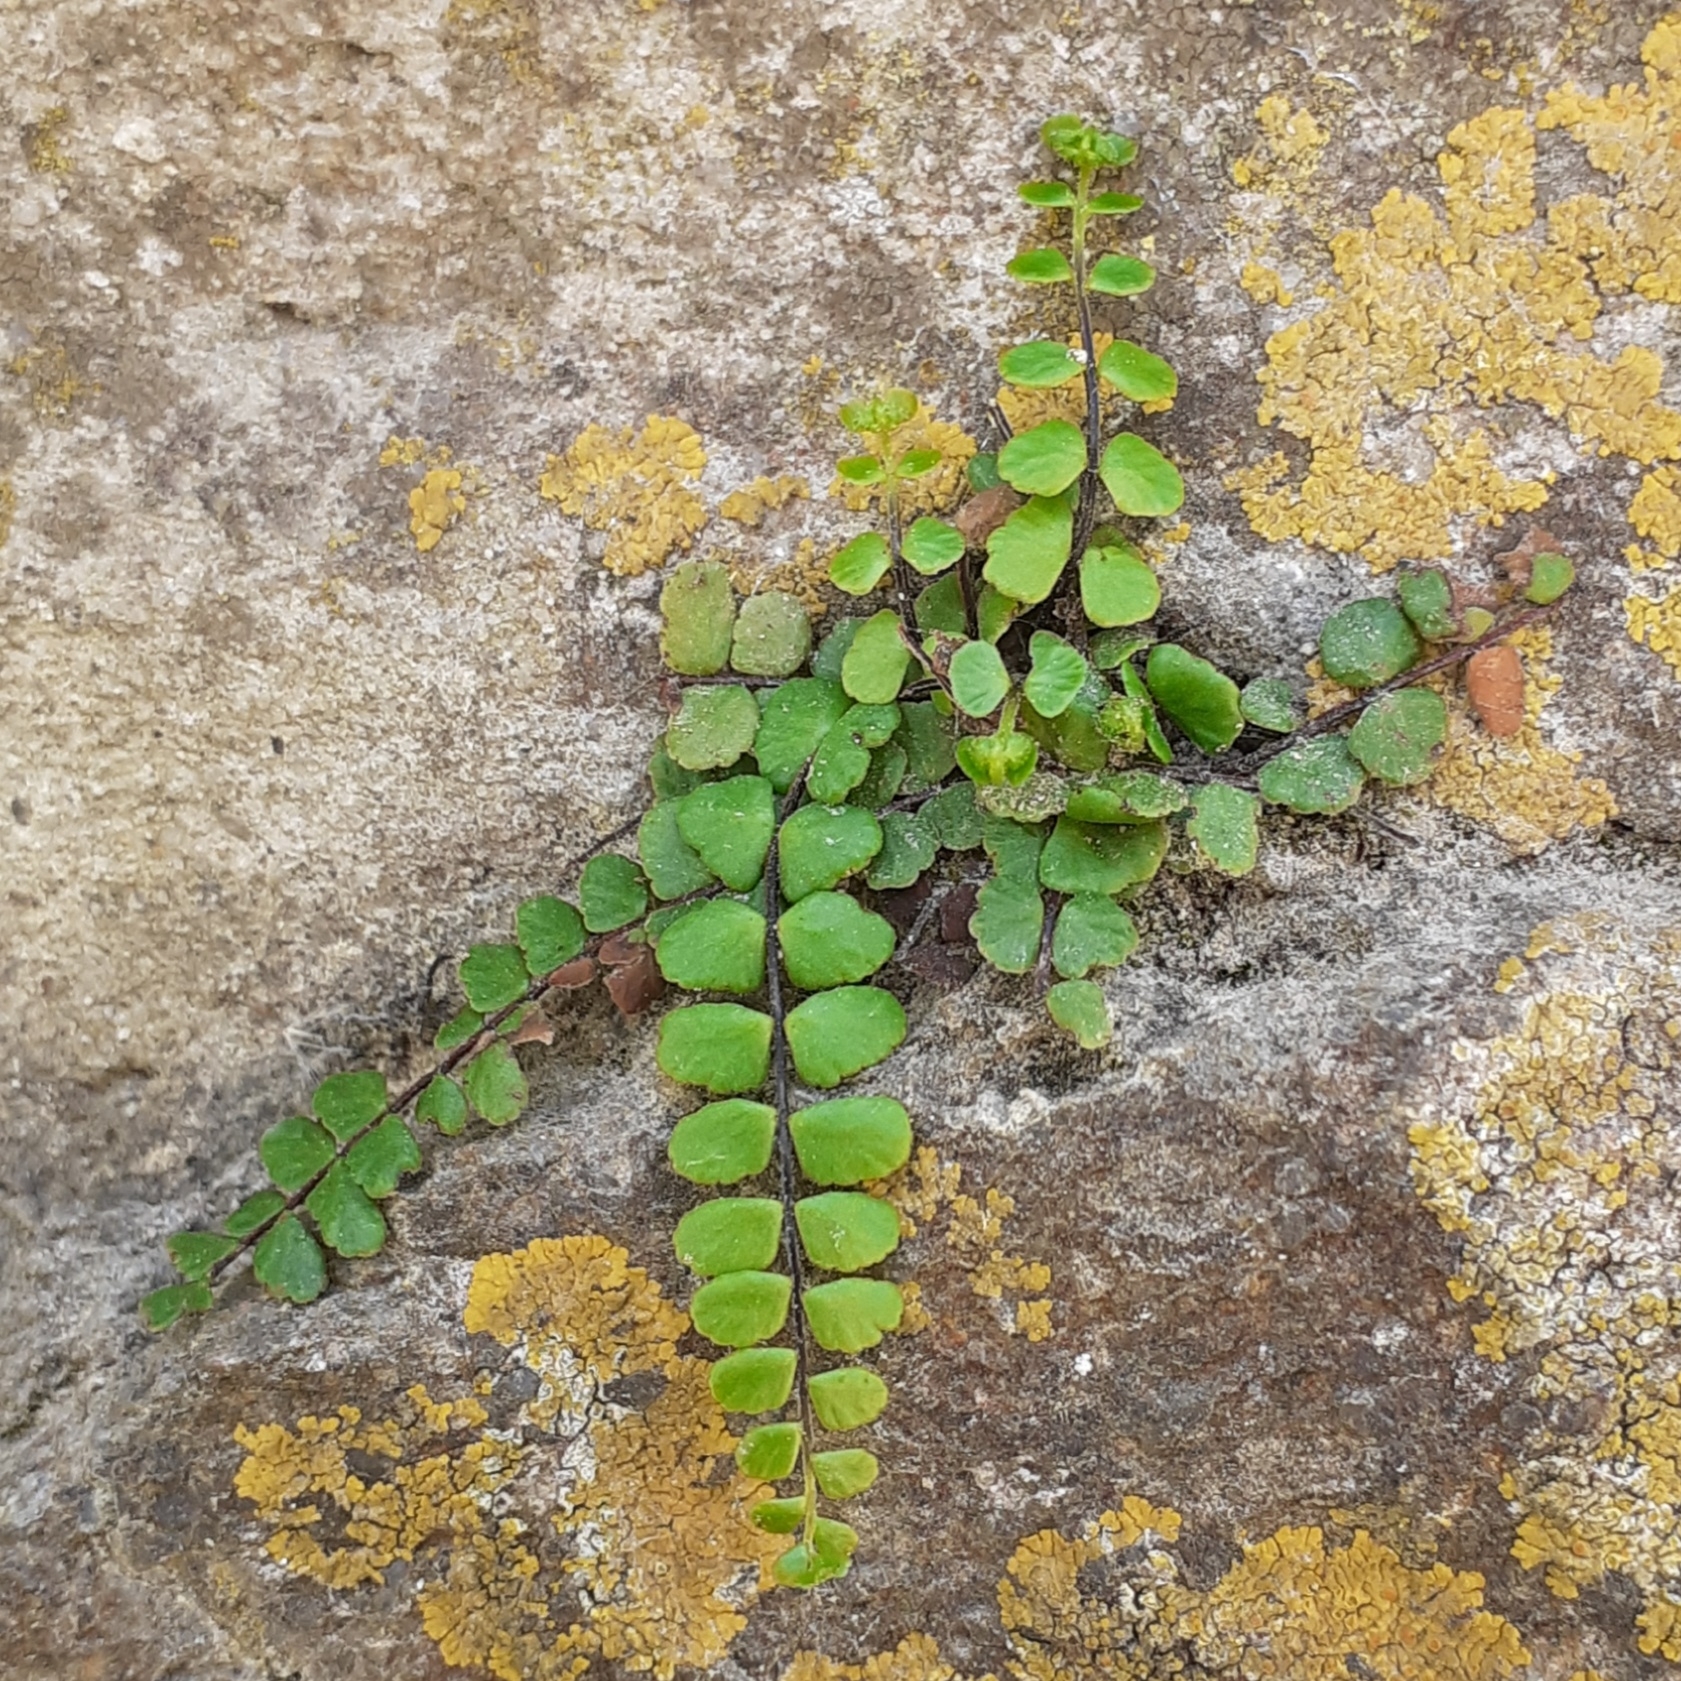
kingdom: Plantae
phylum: Tracheophyta
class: Polypodiopsida
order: Polypodiales
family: Aspleniaceae
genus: Asplenium
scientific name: Asplenium trichomanes
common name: Maidenhair spleenwort
